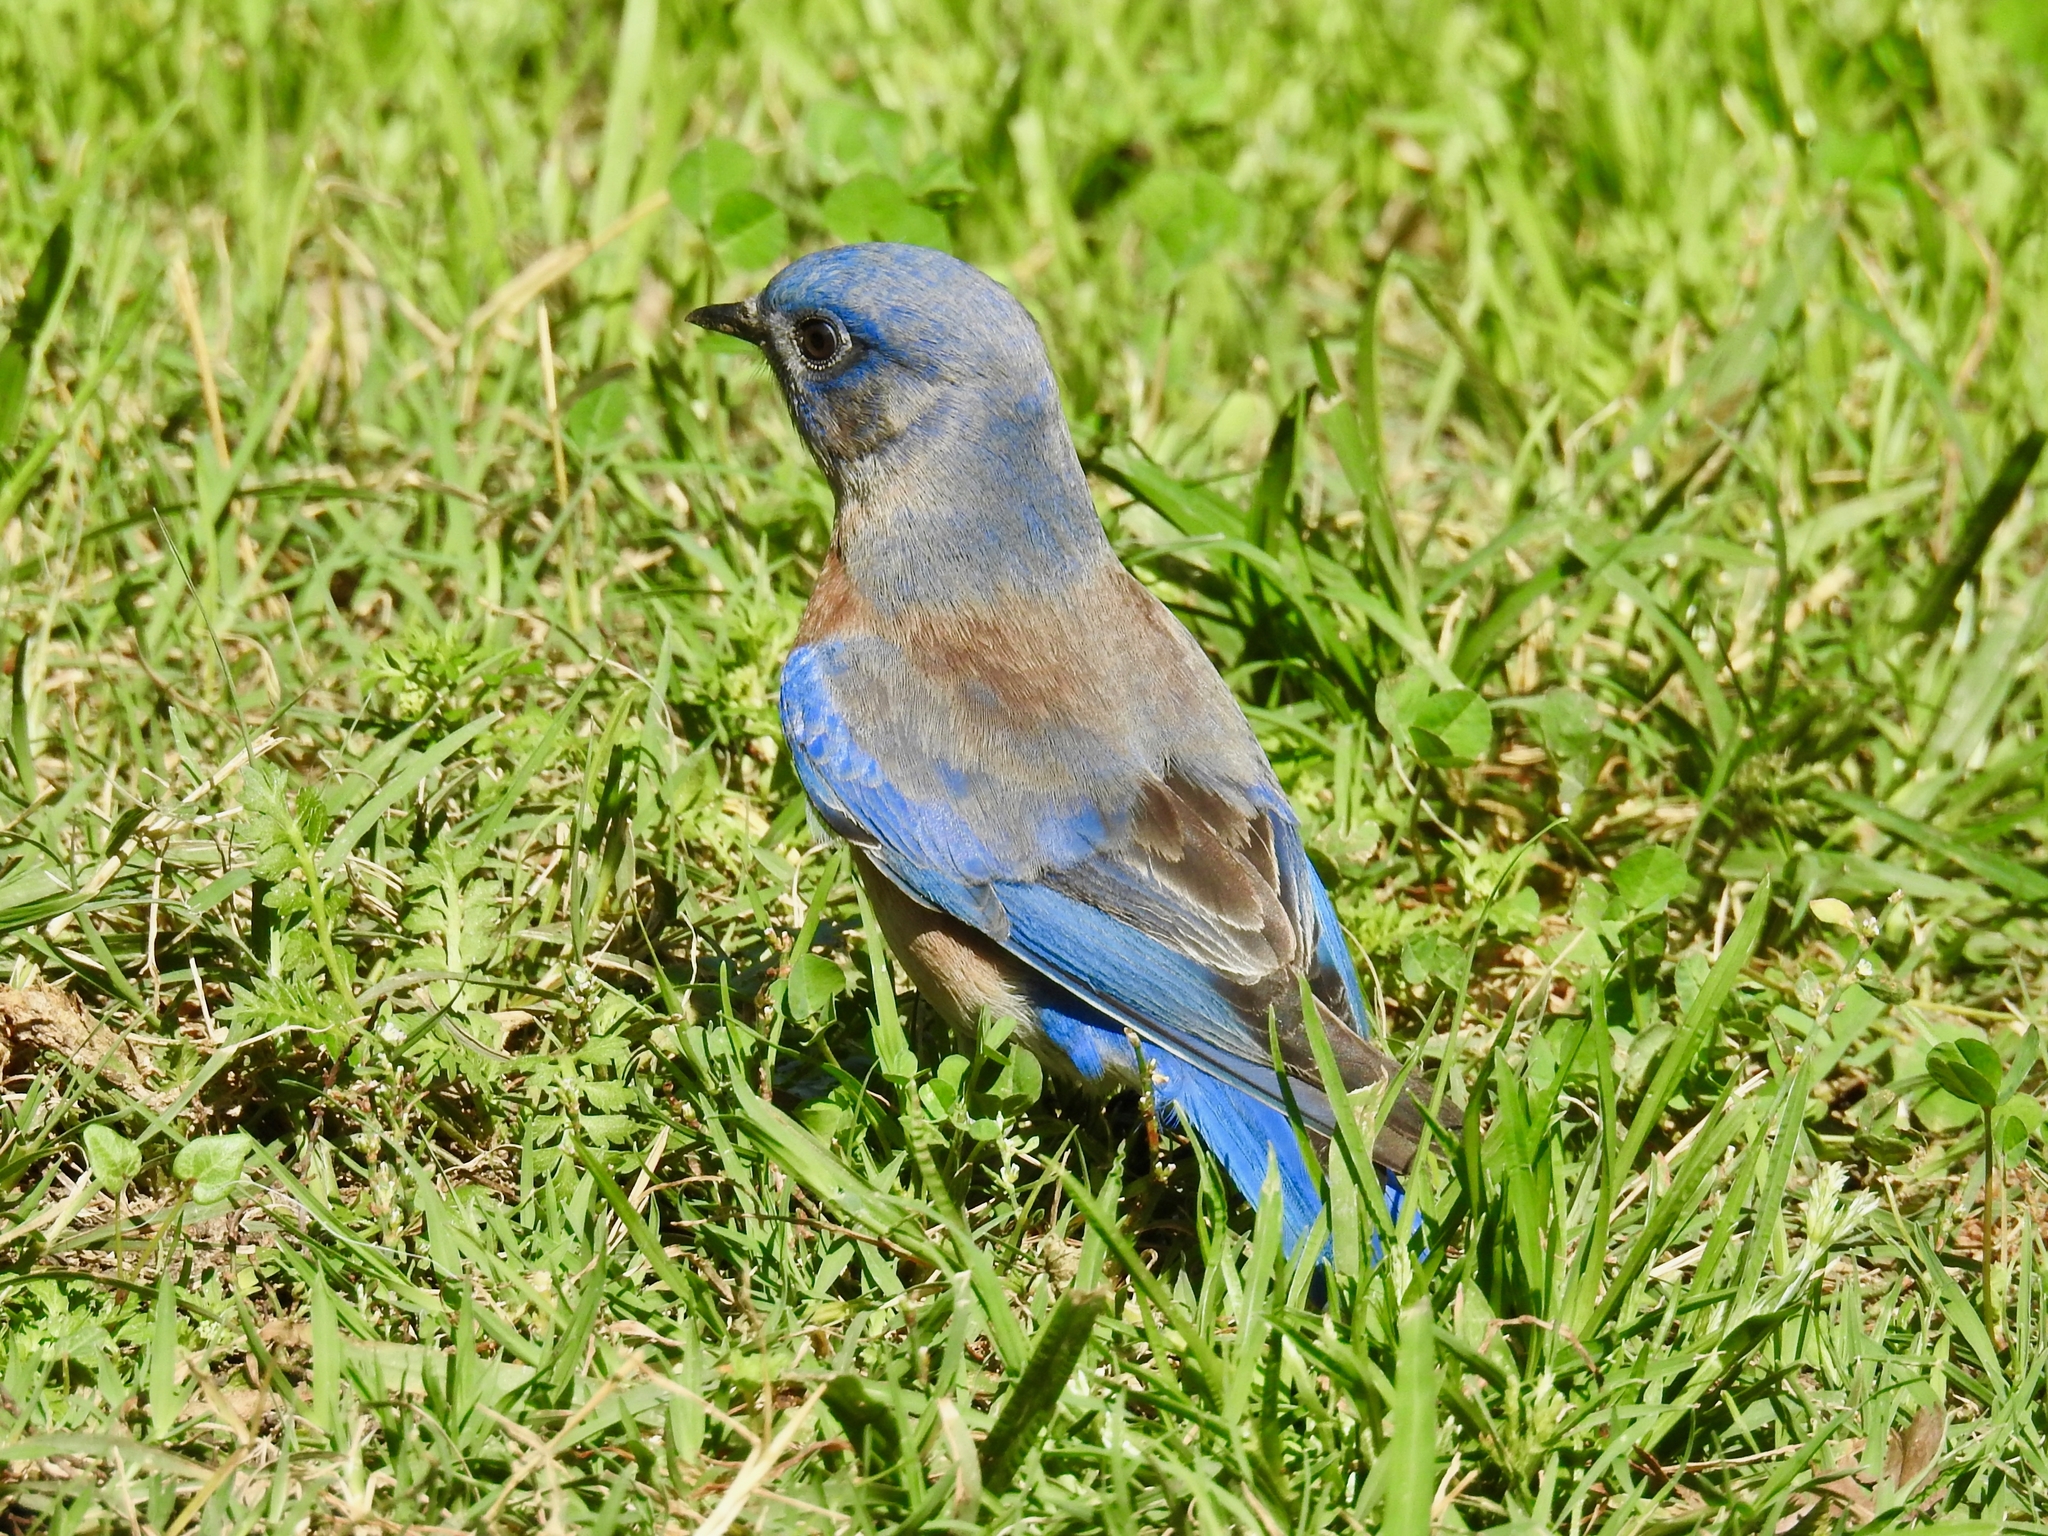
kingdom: Animalia
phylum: Chordata
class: Aves
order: Passeriformes
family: Turdidae
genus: Sialia
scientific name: Sialia mexicana
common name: Western bluebird
